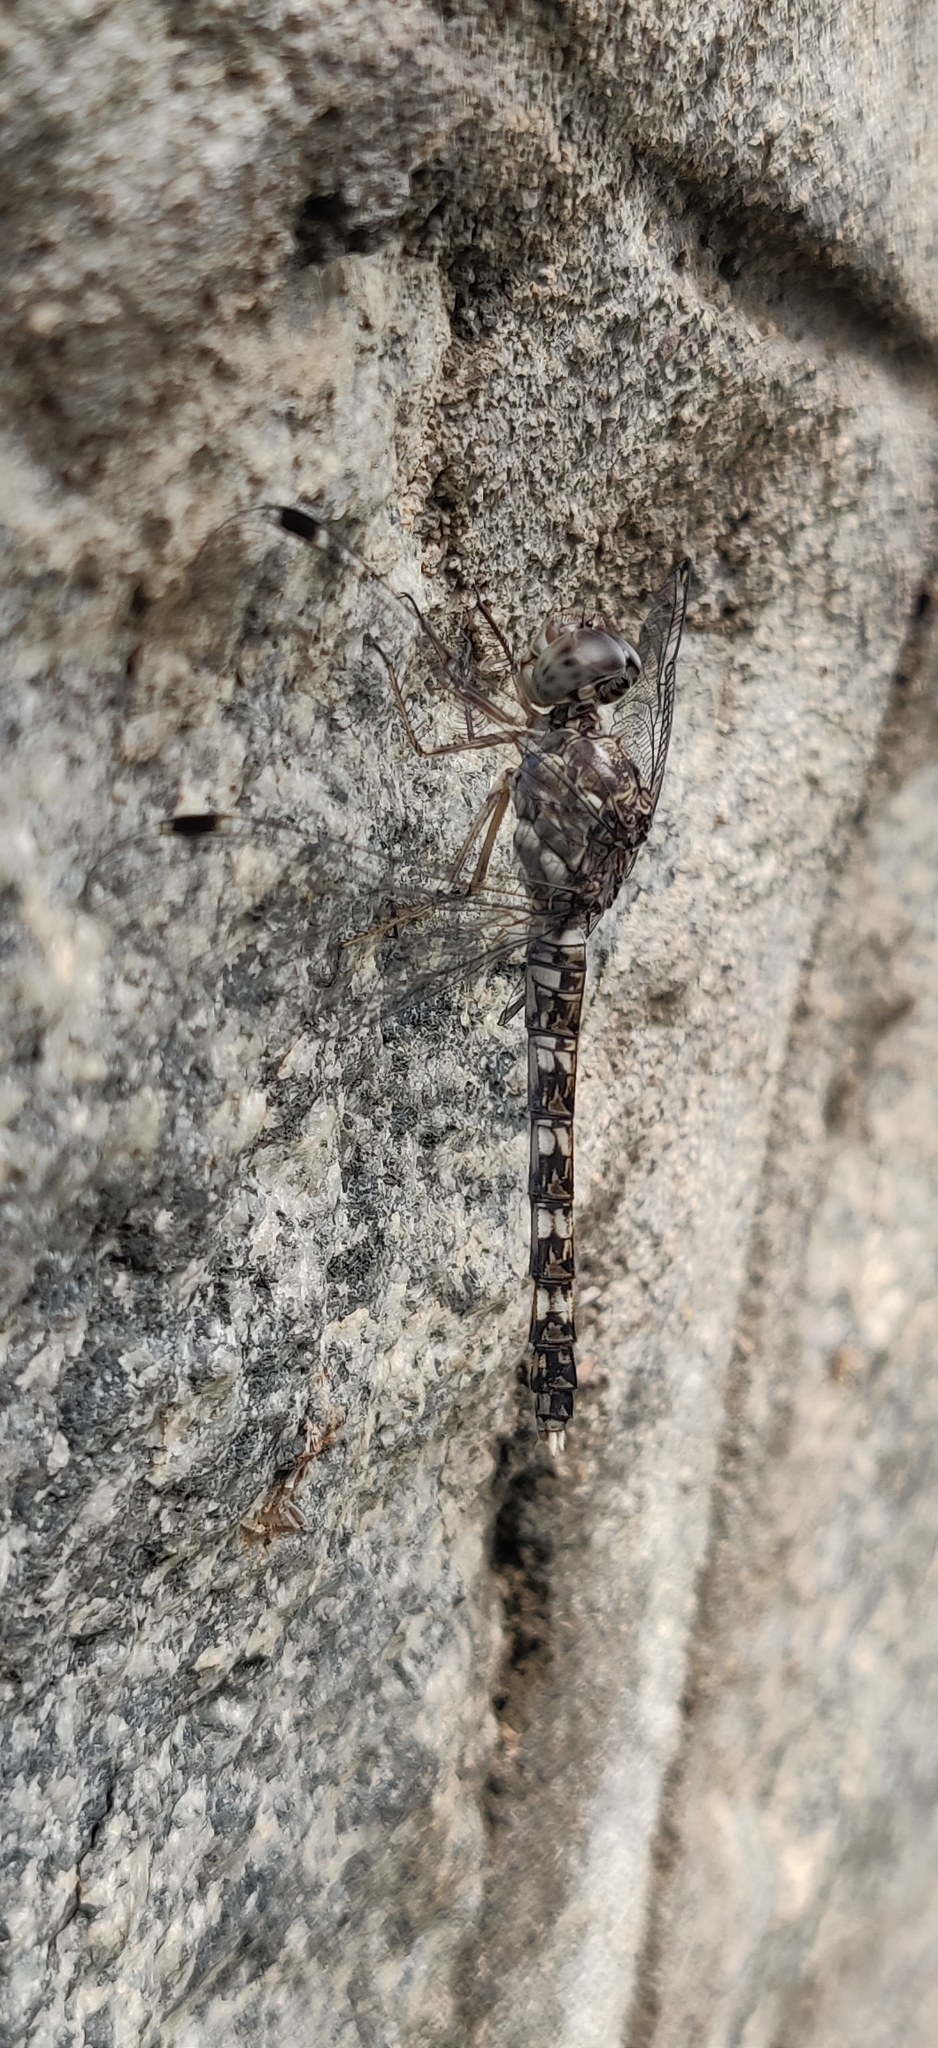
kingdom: Animalia
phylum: Arthropoda
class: Insecta
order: Odonata
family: Libellulidae
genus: Bradinopyga
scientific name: Bradinopyga geminata
